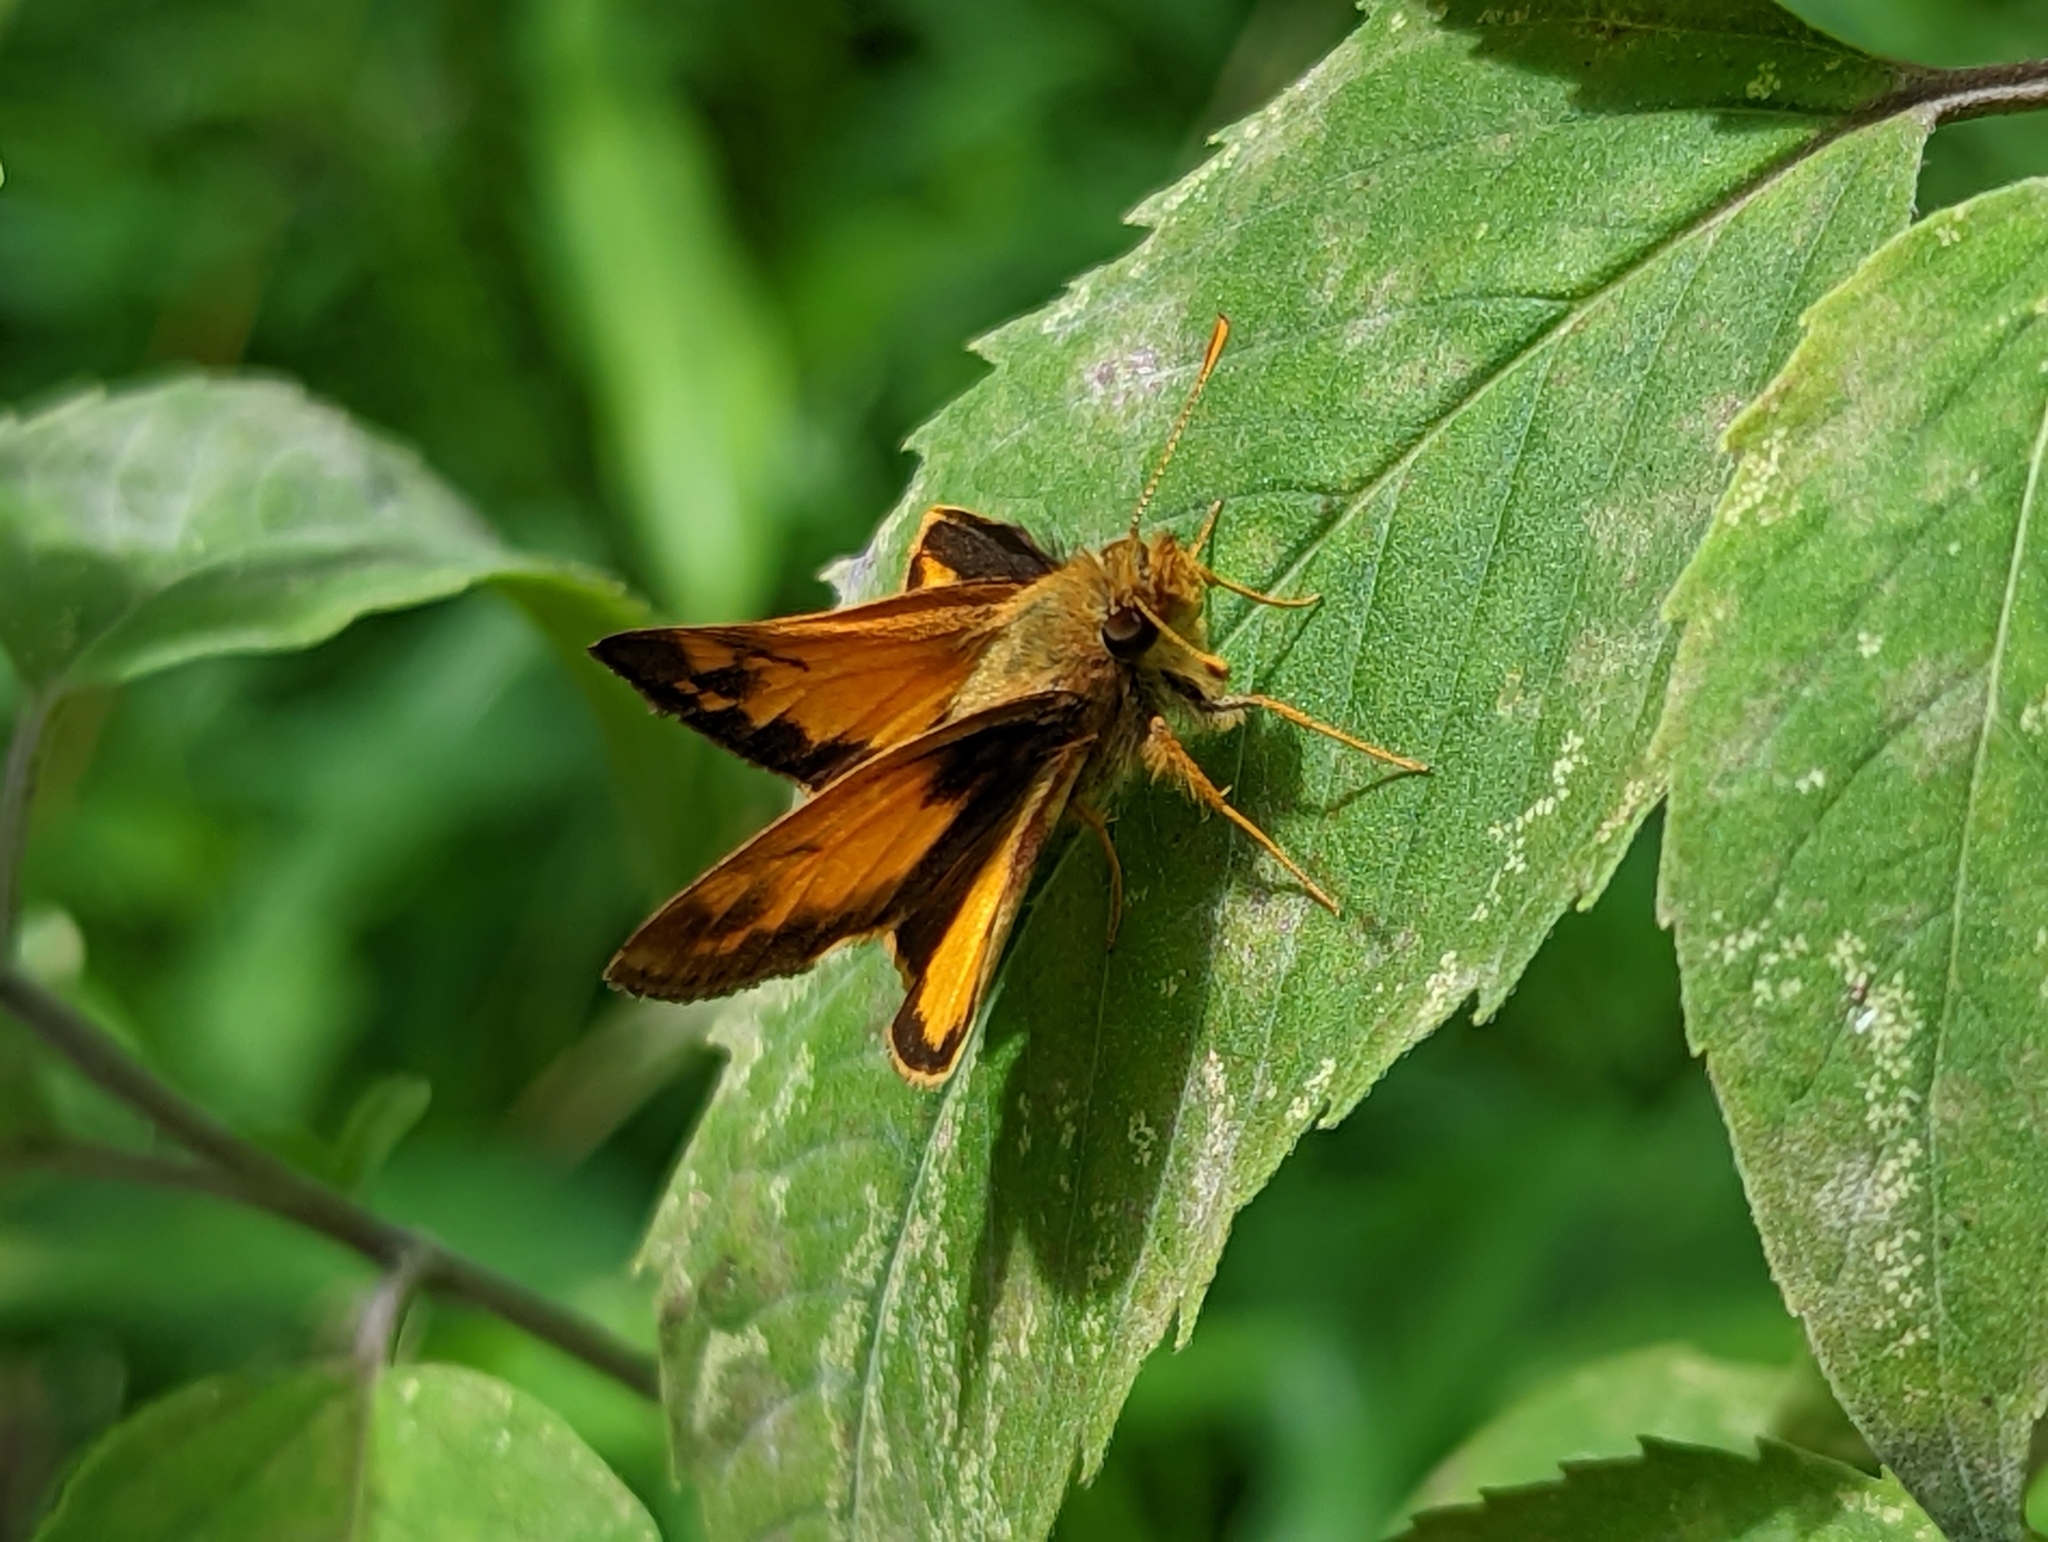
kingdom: Animalia
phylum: Arthropoda
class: Insecta
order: Lepidoptera
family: Hesperiidae
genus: Lon
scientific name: Lon zabulon
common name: Zabulon skipper
